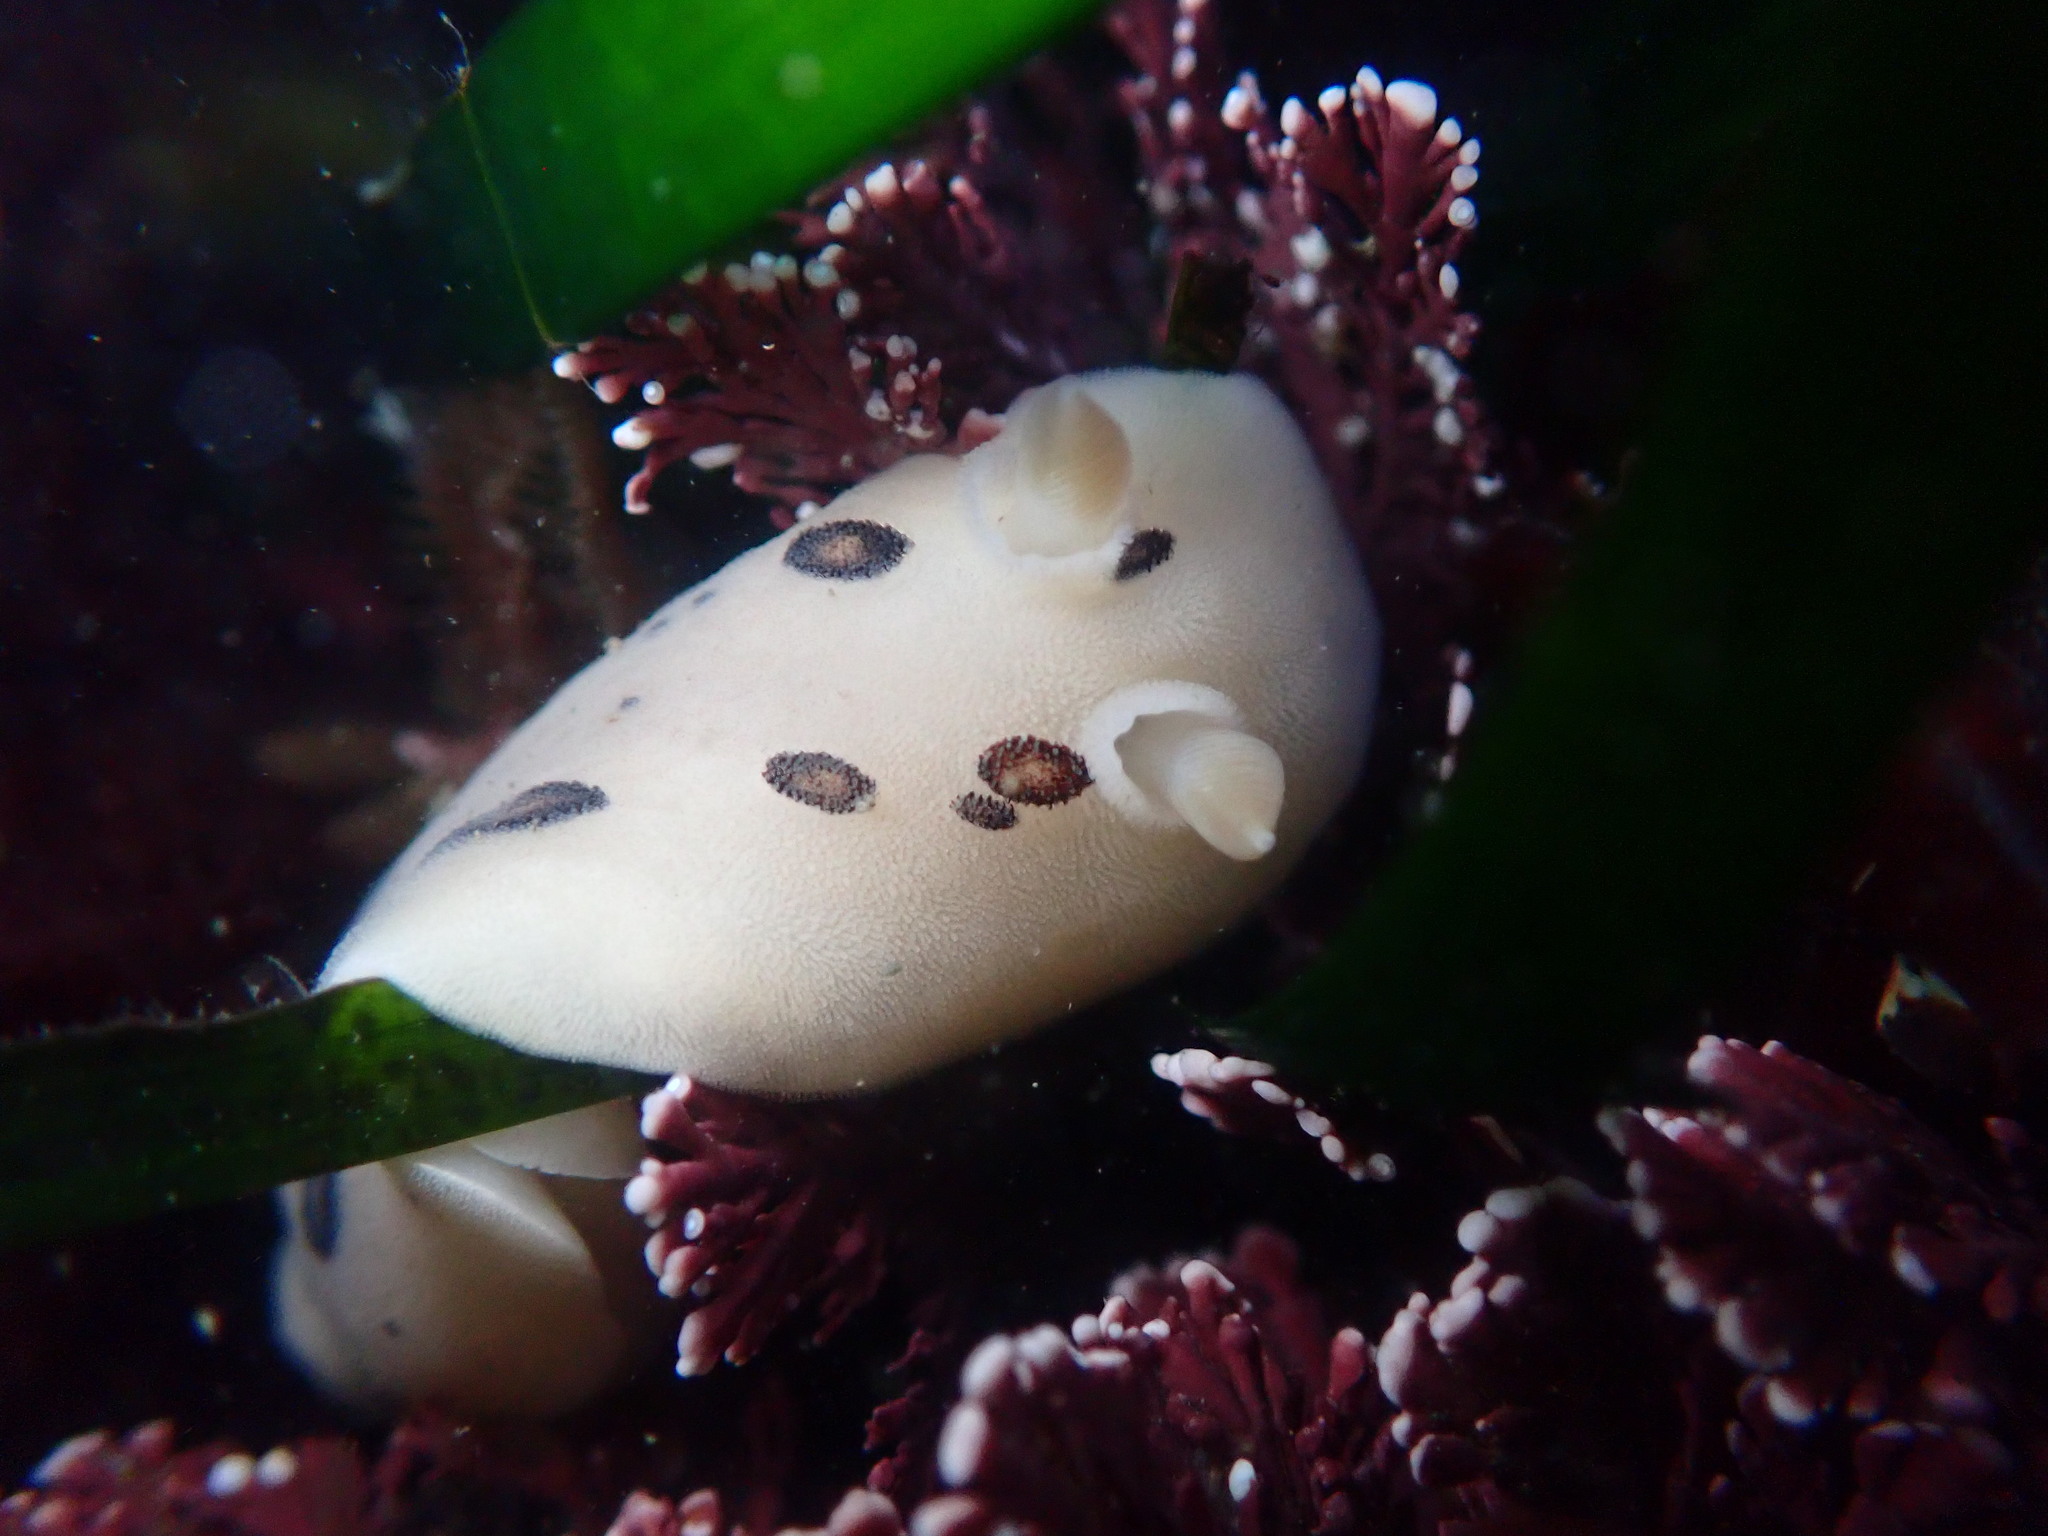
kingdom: Animalia
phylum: Mollusca
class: Gastropoda
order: Nudibranchia
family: Discodorididae
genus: Diaulula
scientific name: Diaulula sandiegensis
